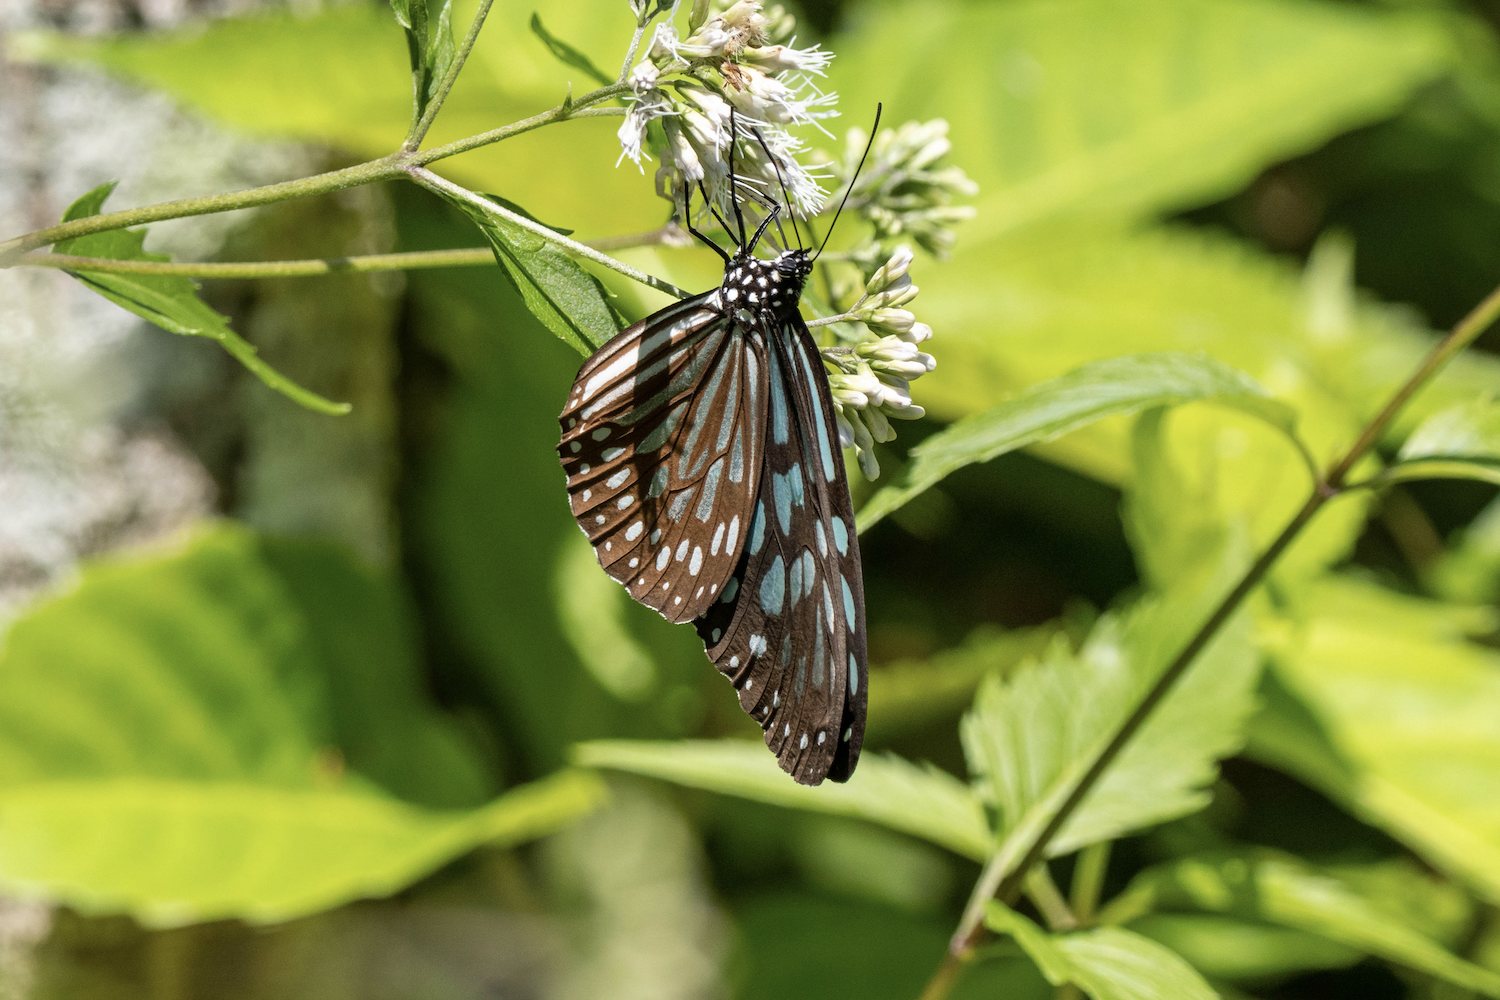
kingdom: Animalia
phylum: Arthropoda
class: Insecta
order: Lepidoptera
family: Nymphalidae
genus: Ideopsis
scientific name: Ideopsis similis
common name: Ceylon blue glassy tiger
